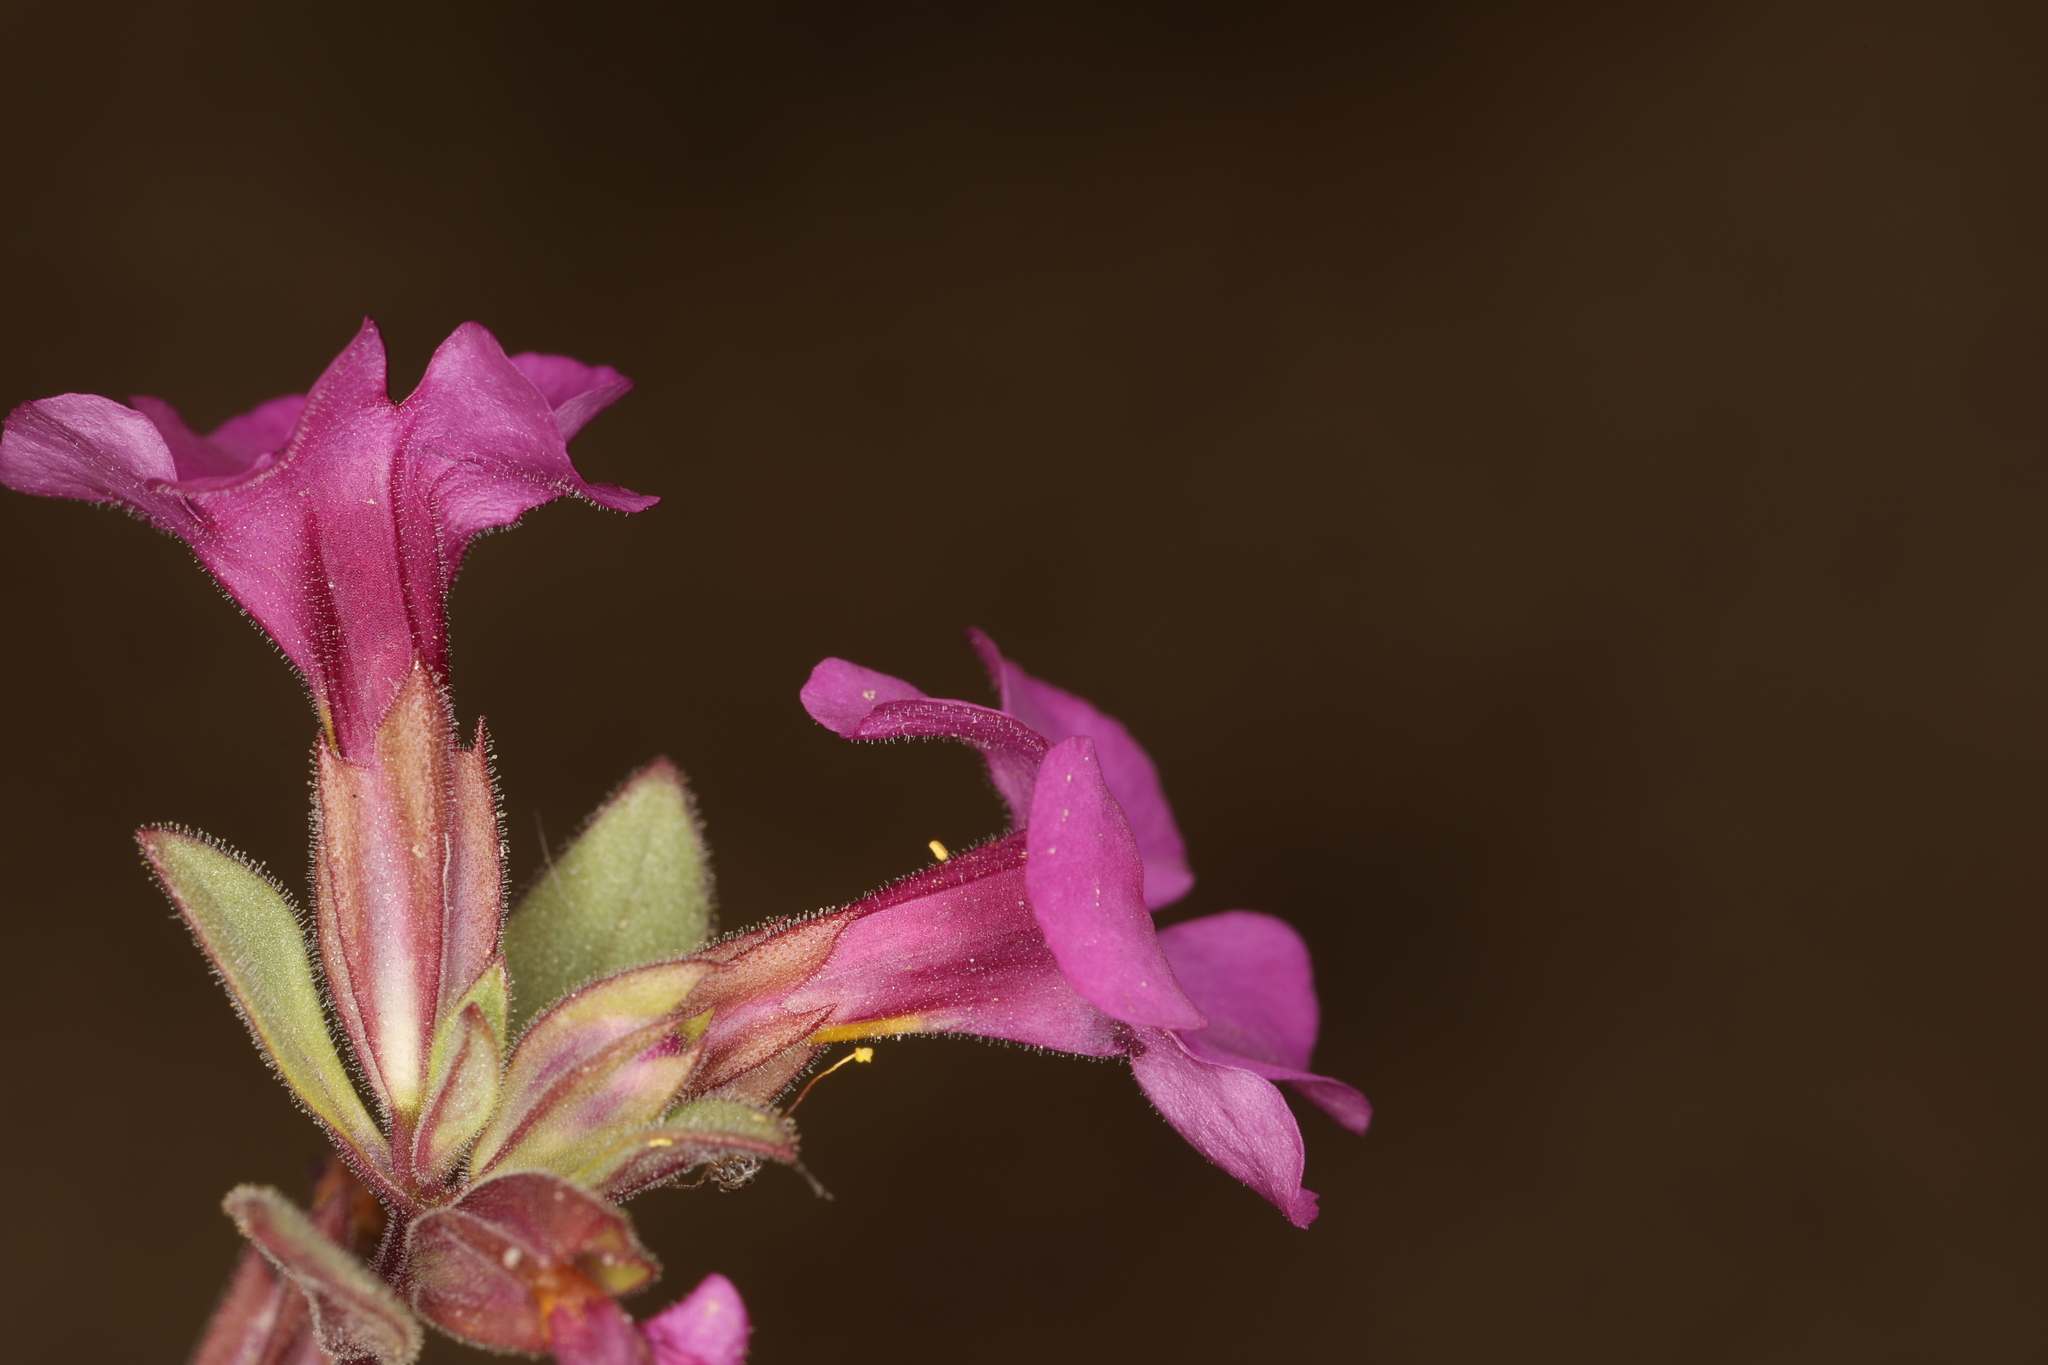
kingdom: Plantae
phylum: Tracheophyta
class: Magnoliopsida
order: Lamiales
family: Phrymaceae
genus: Diplacus
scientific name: Diplacus parryi
